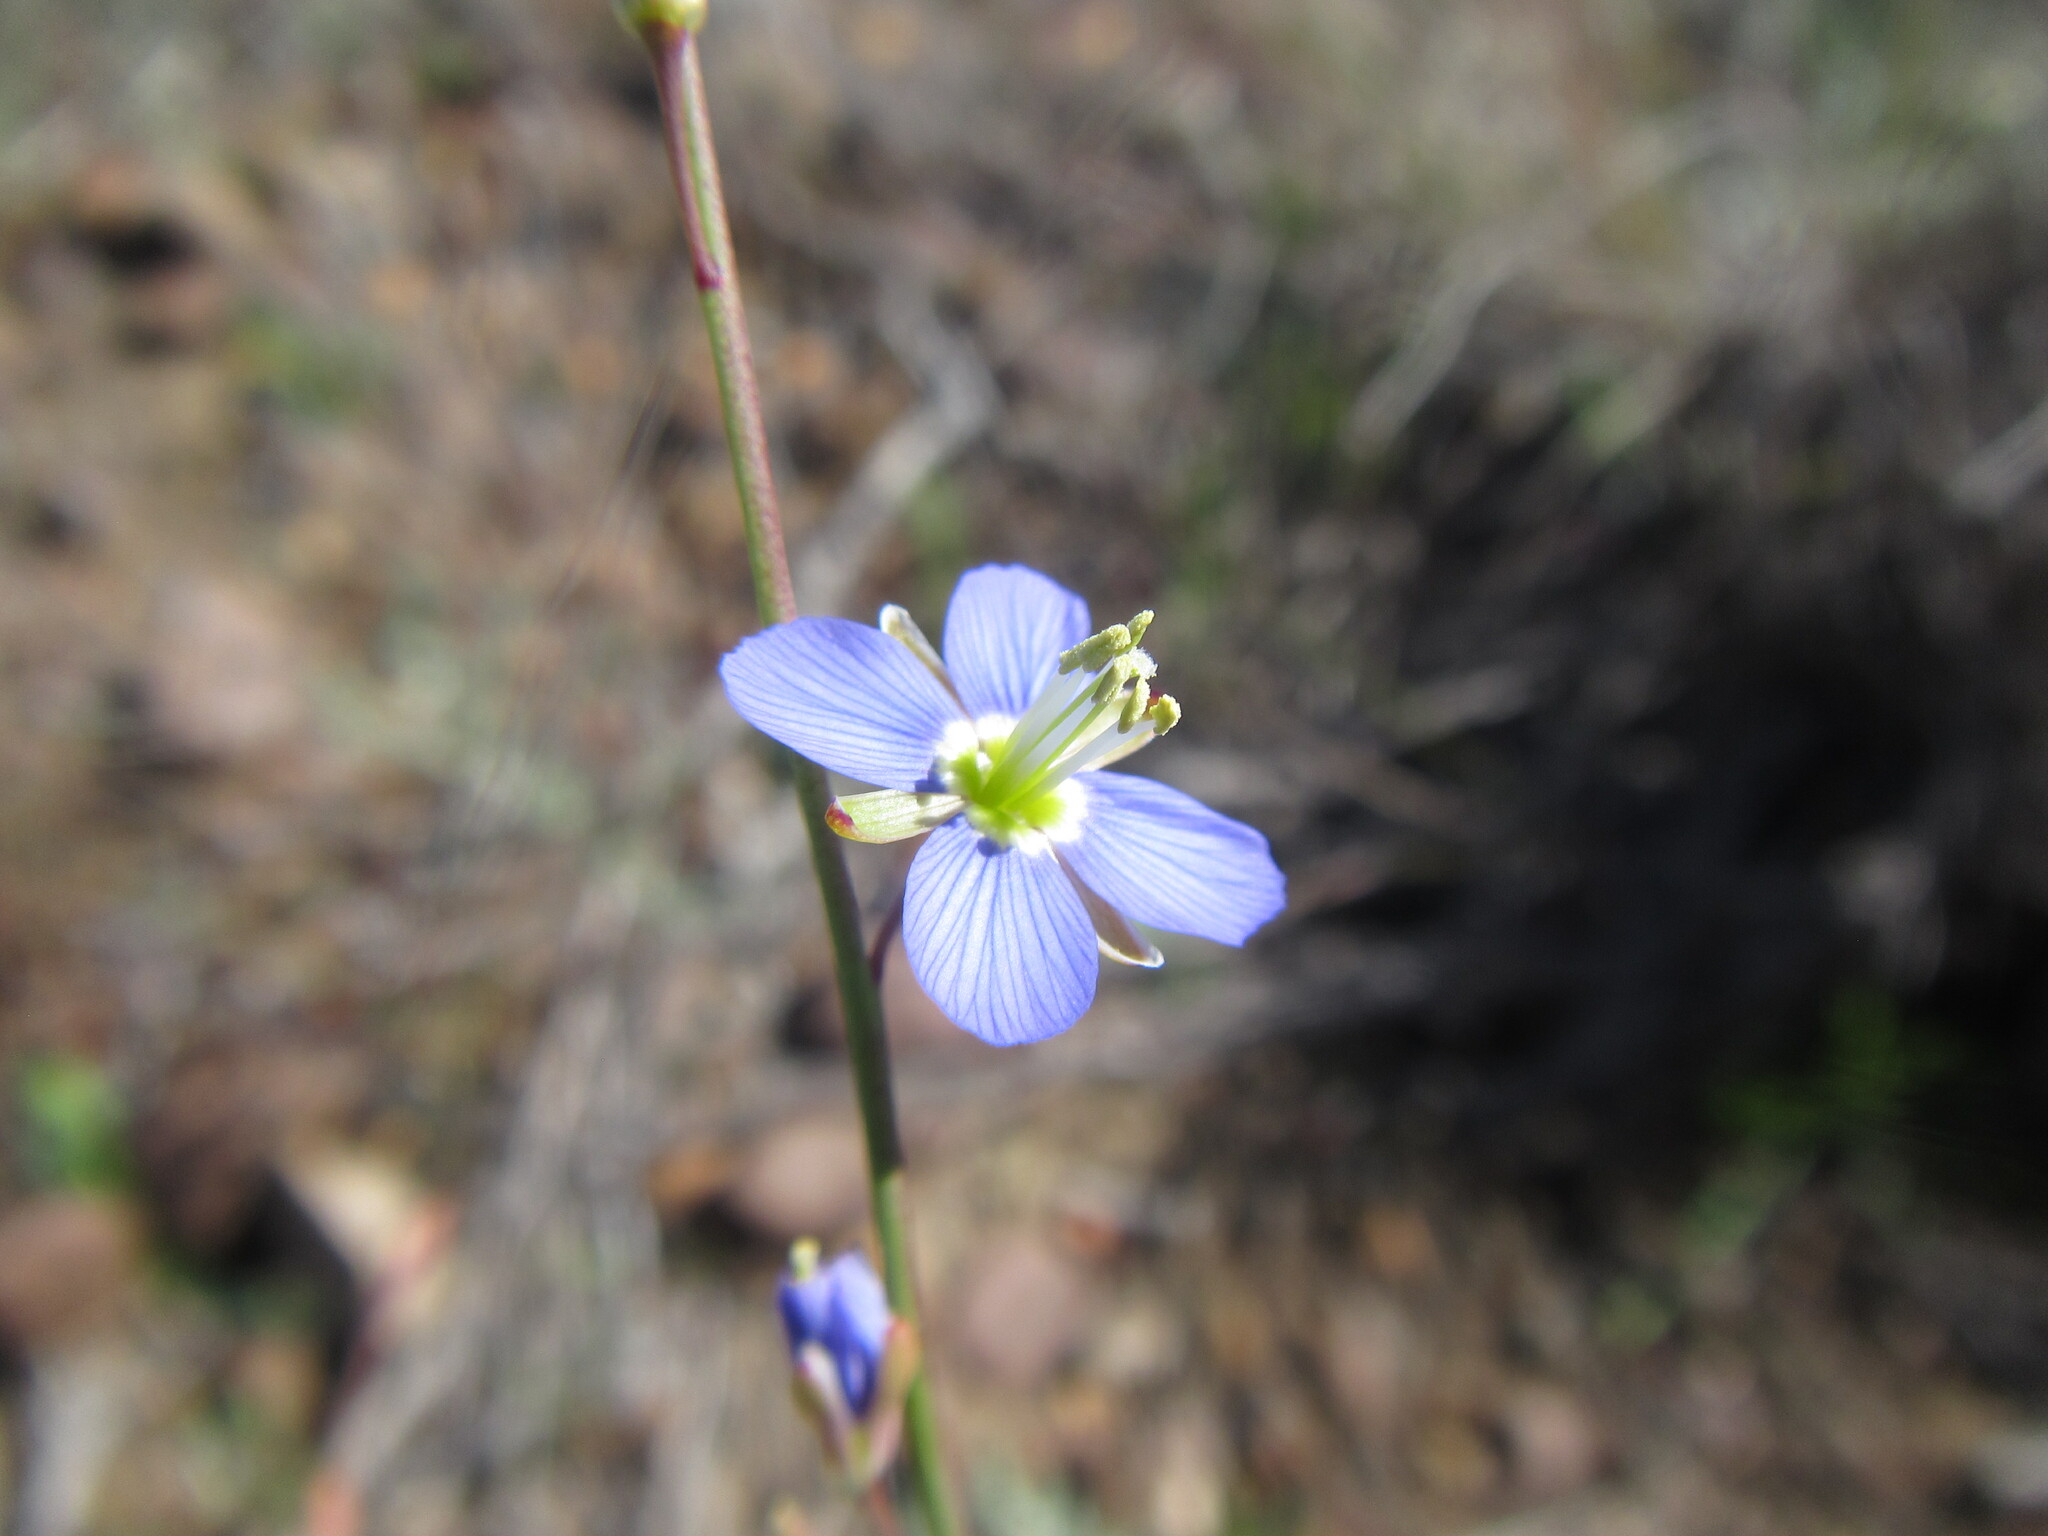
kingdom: Plantae
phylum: Tracheophyta
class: Magnoliopsida
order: Brassicales
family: Brassicaceae
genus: Heliophila
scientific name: Heliophila linoides
